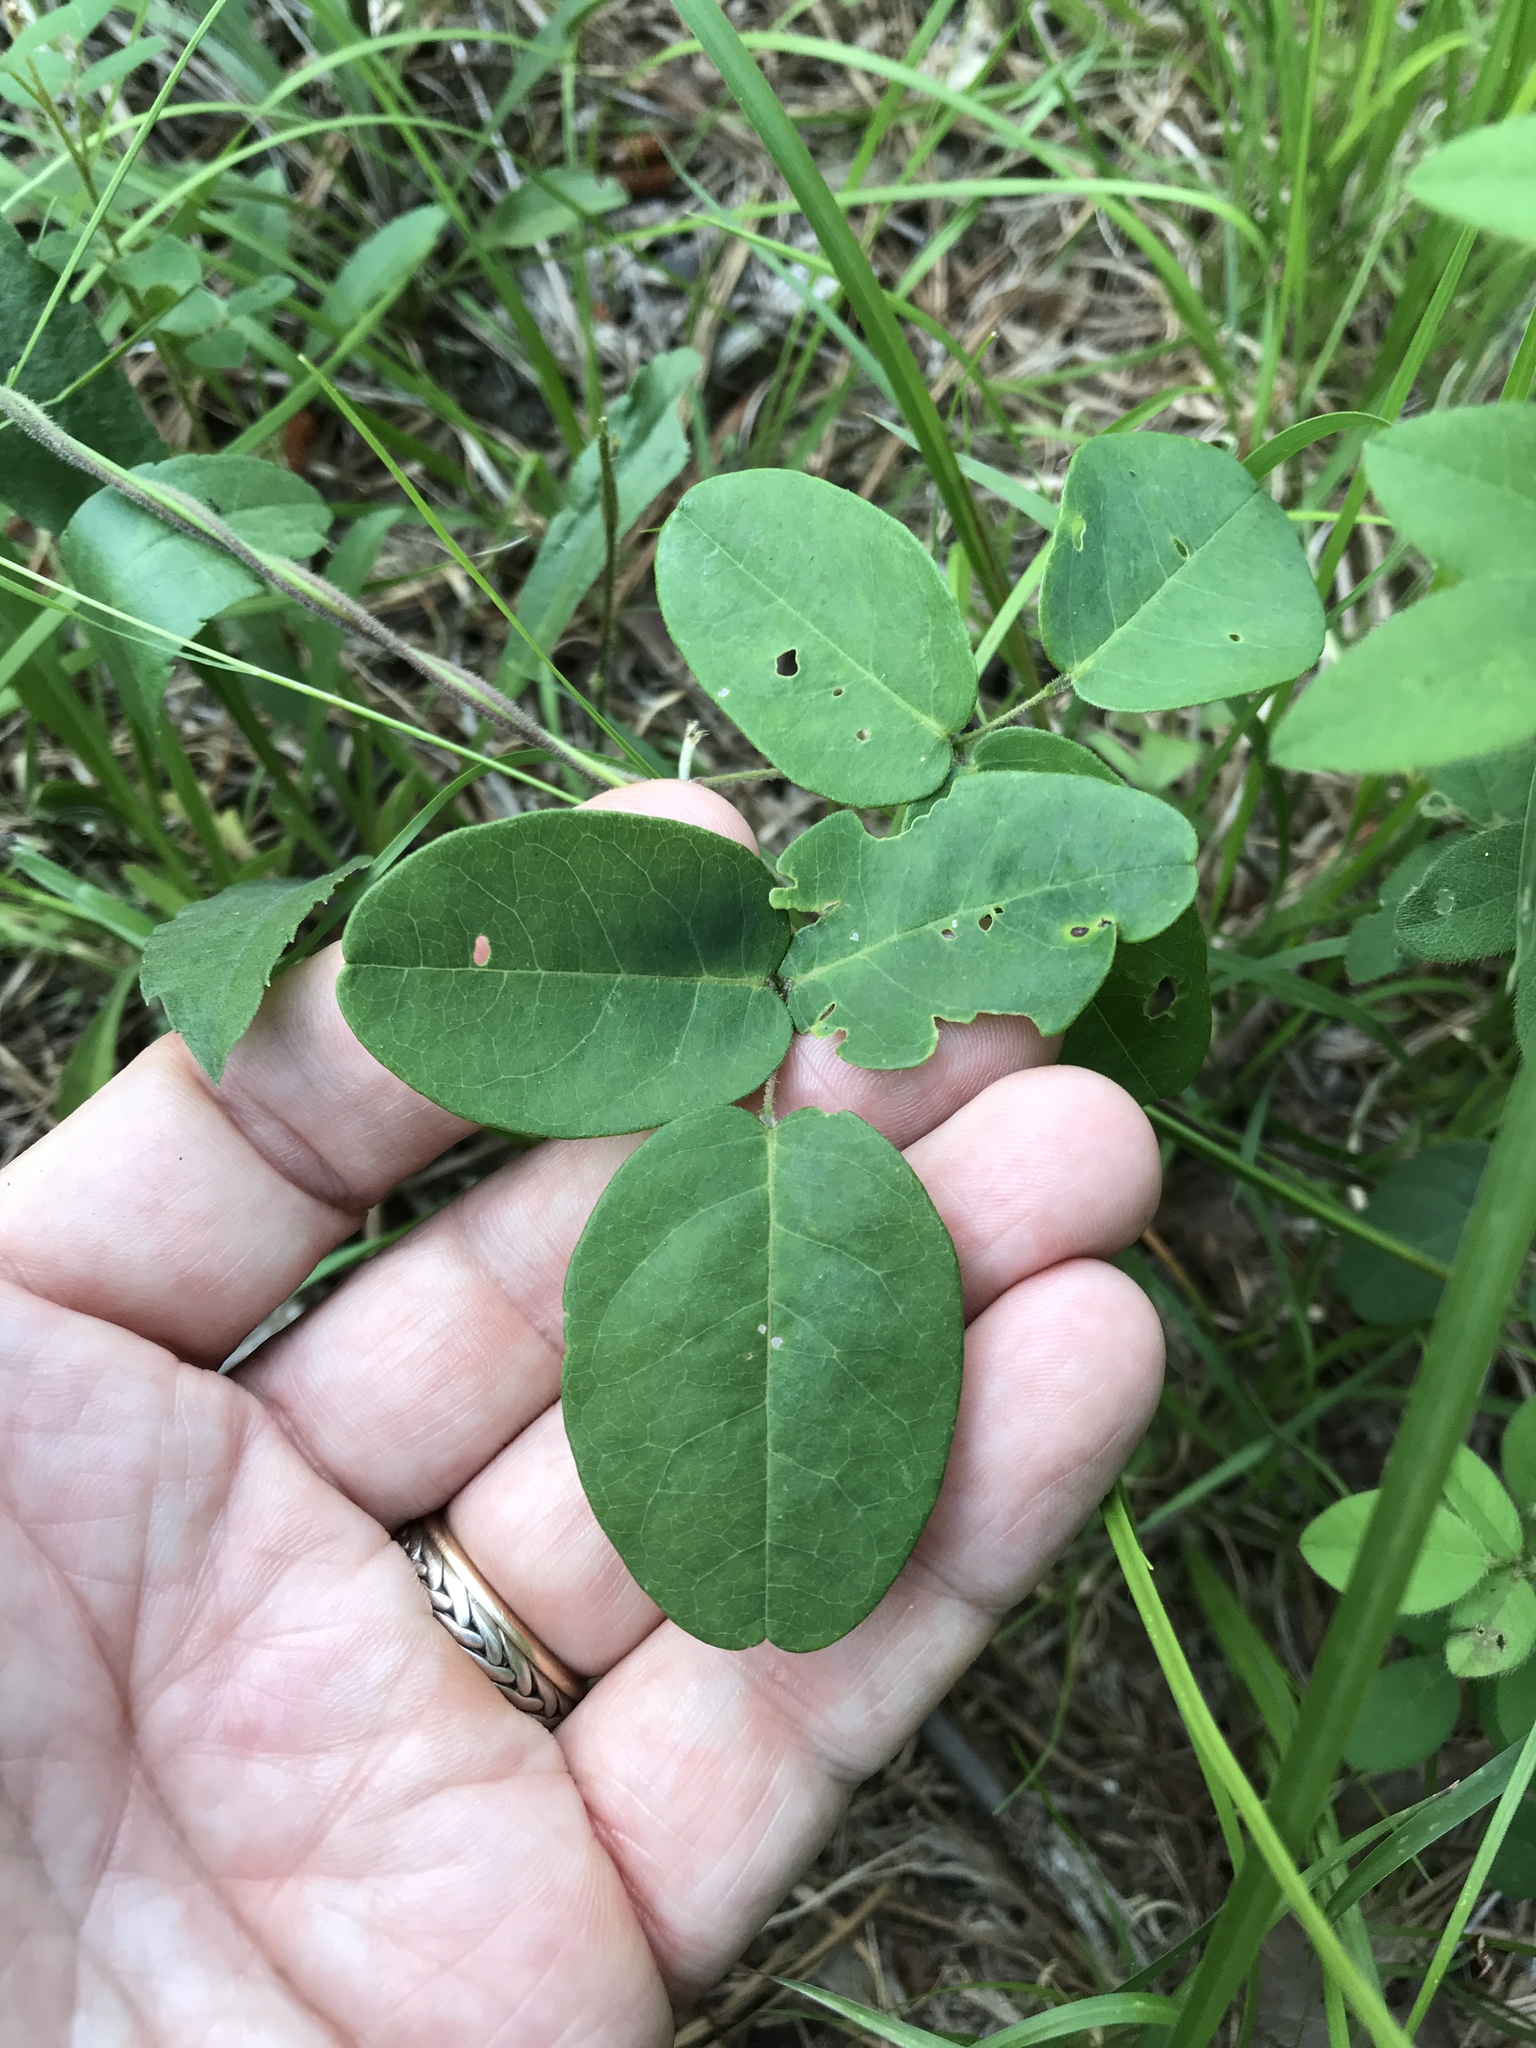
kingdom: Plantae
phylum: Tracheophyta
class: Magnoliopsida
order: Fabales
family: Fabaceae
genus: Galactia
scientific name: Galactia regularis
